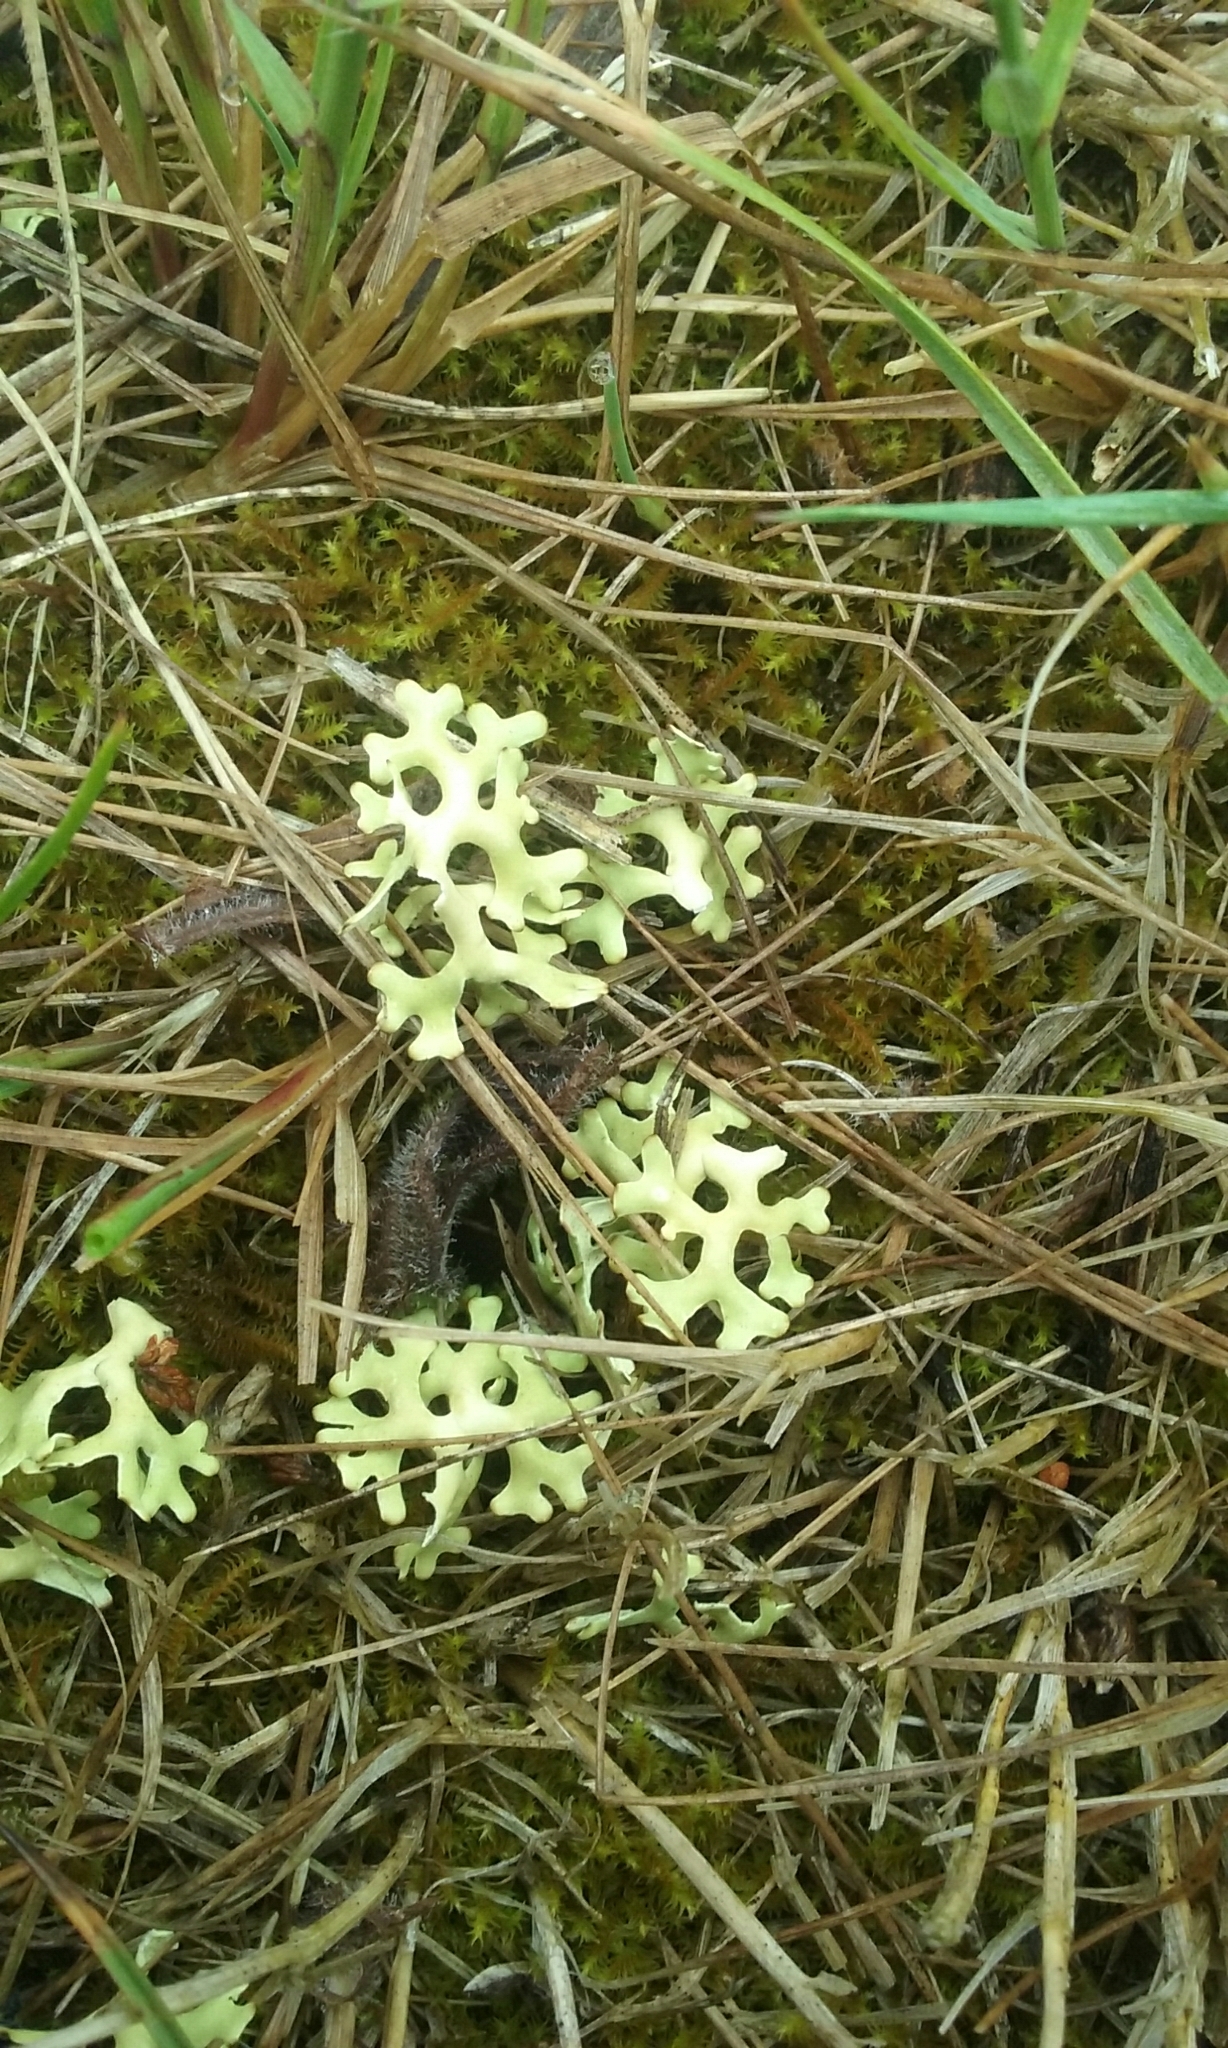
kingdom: Fungi
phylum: Ascomycota
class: Lecanoromycetes
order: Lecanorales
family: Parmeliaceae
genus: Xanthoparmelia
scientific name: Xanthoparmelia semiviridis
